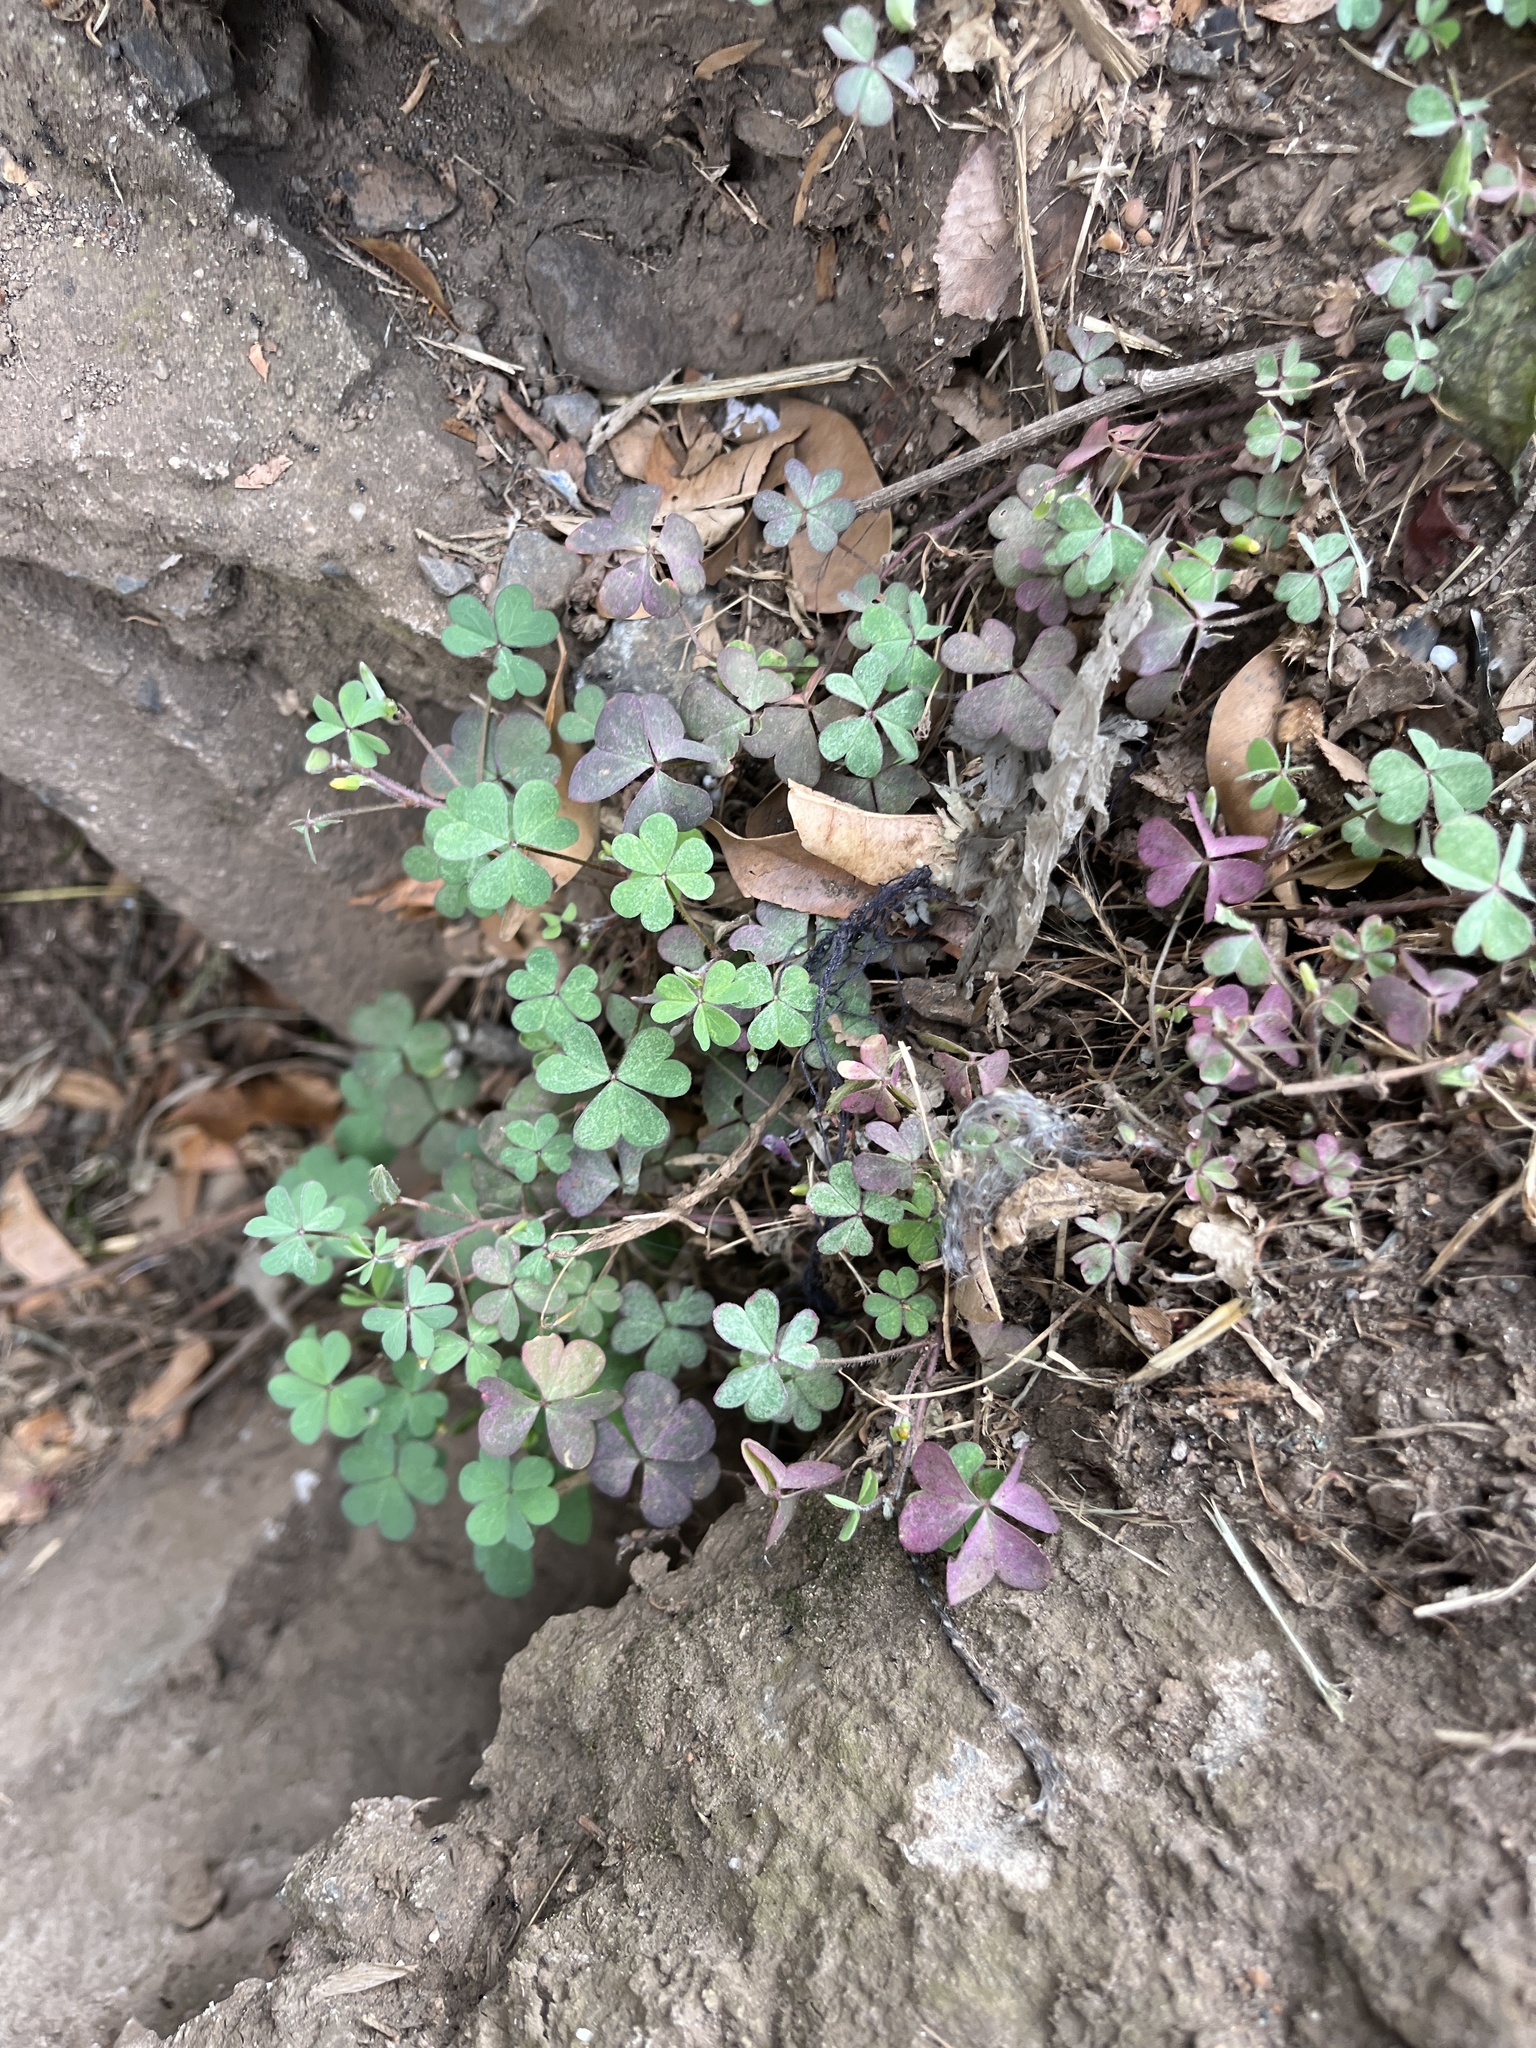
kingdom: Plantae
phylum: Tracheophyta
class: Magnoliopsida
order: Oxalidales
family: Oxalidaceae
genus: Oxalis
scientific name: Oxalis corniculata
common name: Procumbent yellow-sorrel
